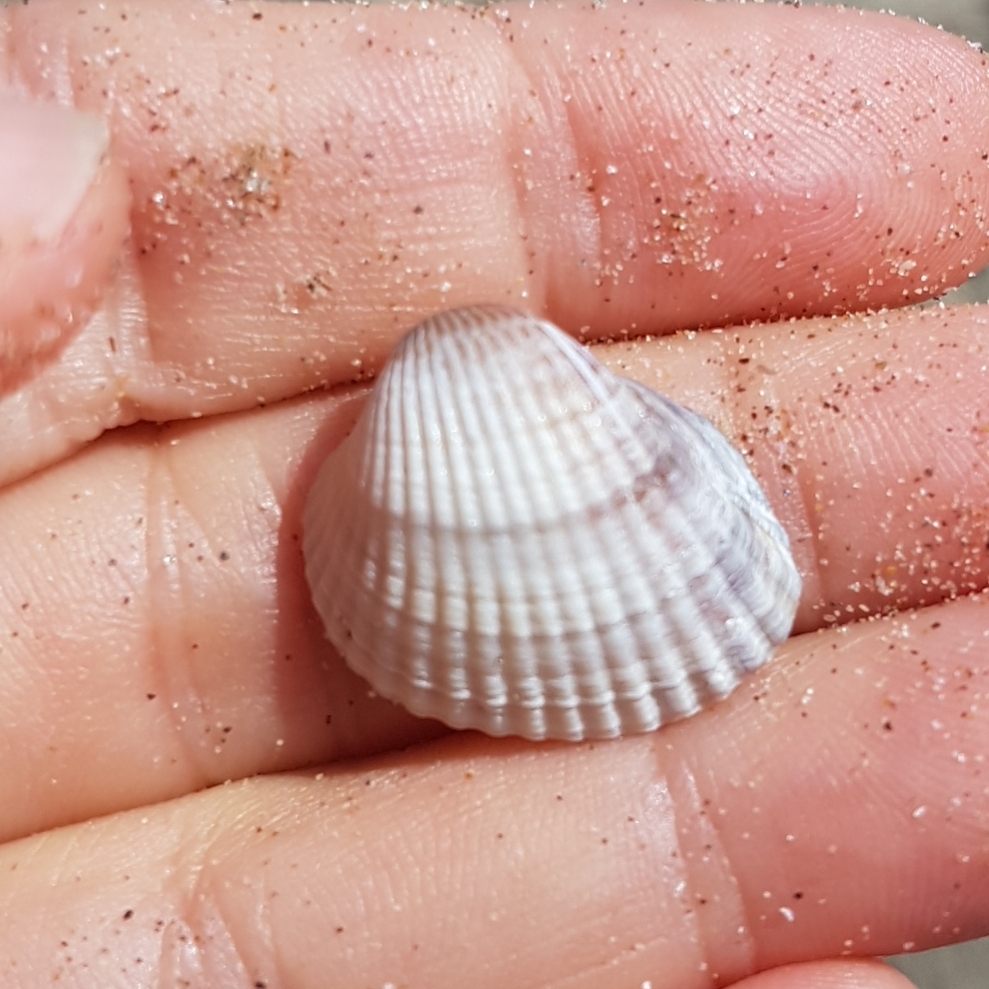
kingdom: Animalia
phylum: Mollusca
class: Bivalvia
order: Cardiida
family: Cardiidae
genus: Cerastoderma
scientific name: Cerastoderma glaucum
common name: Lagoon cockle
